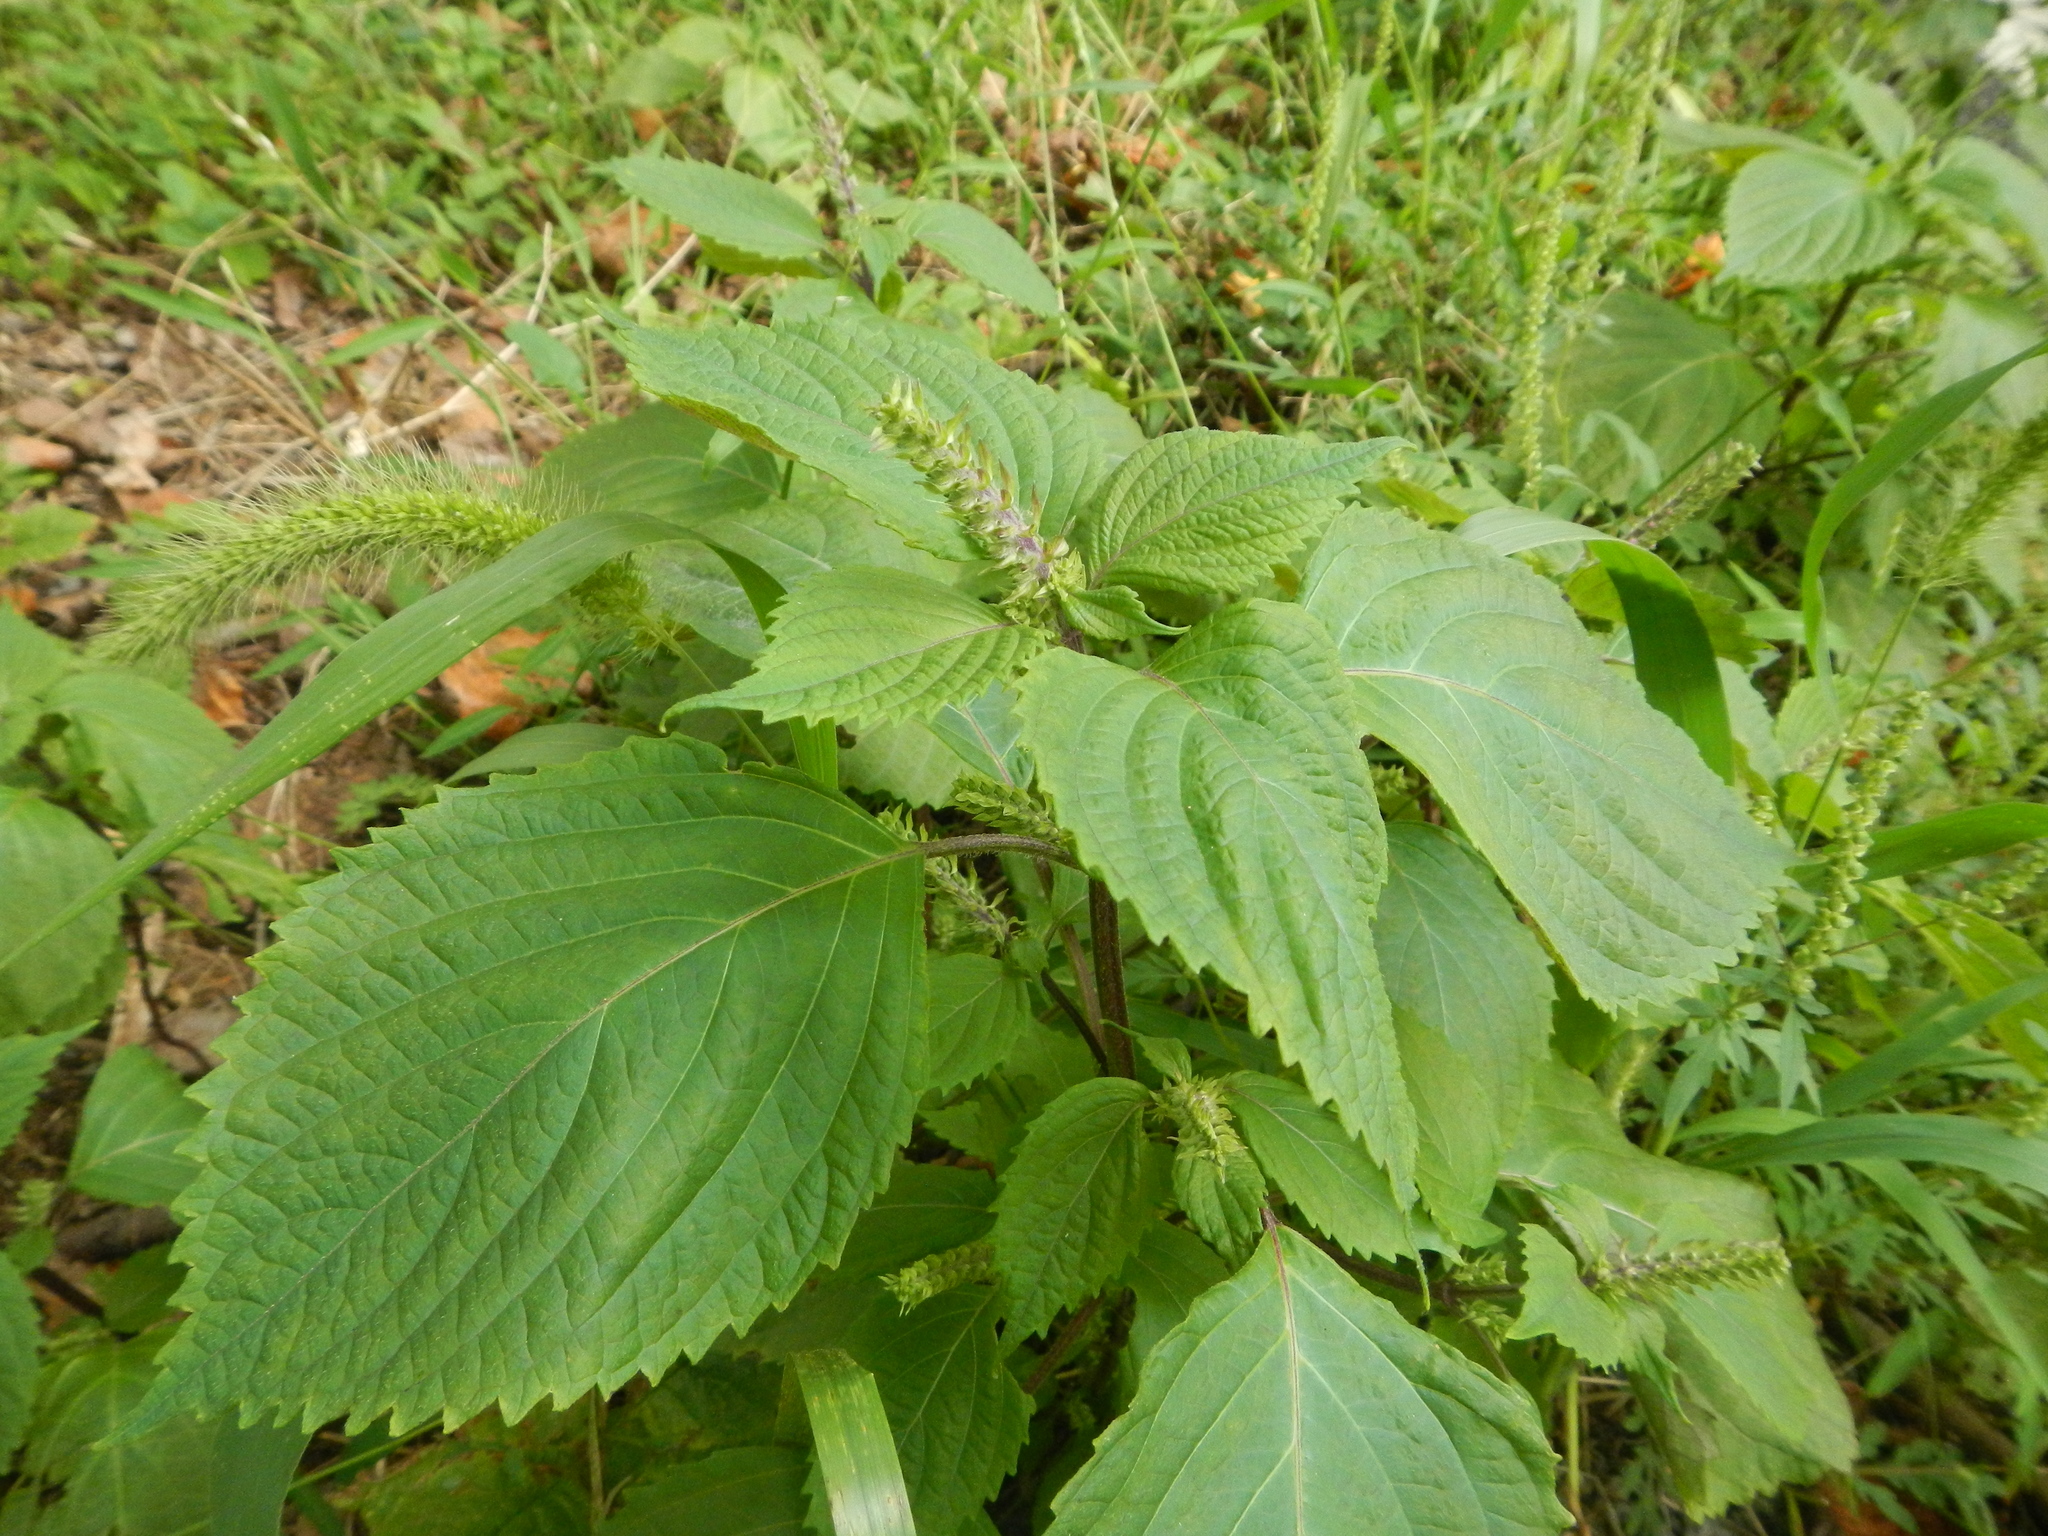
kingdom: Plantae
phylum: Tracheophyta
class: Magnoliopsida
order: Lamiales
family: Lamiaceae
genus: Perilla
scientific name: Perilla frutescens
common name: Perilla
